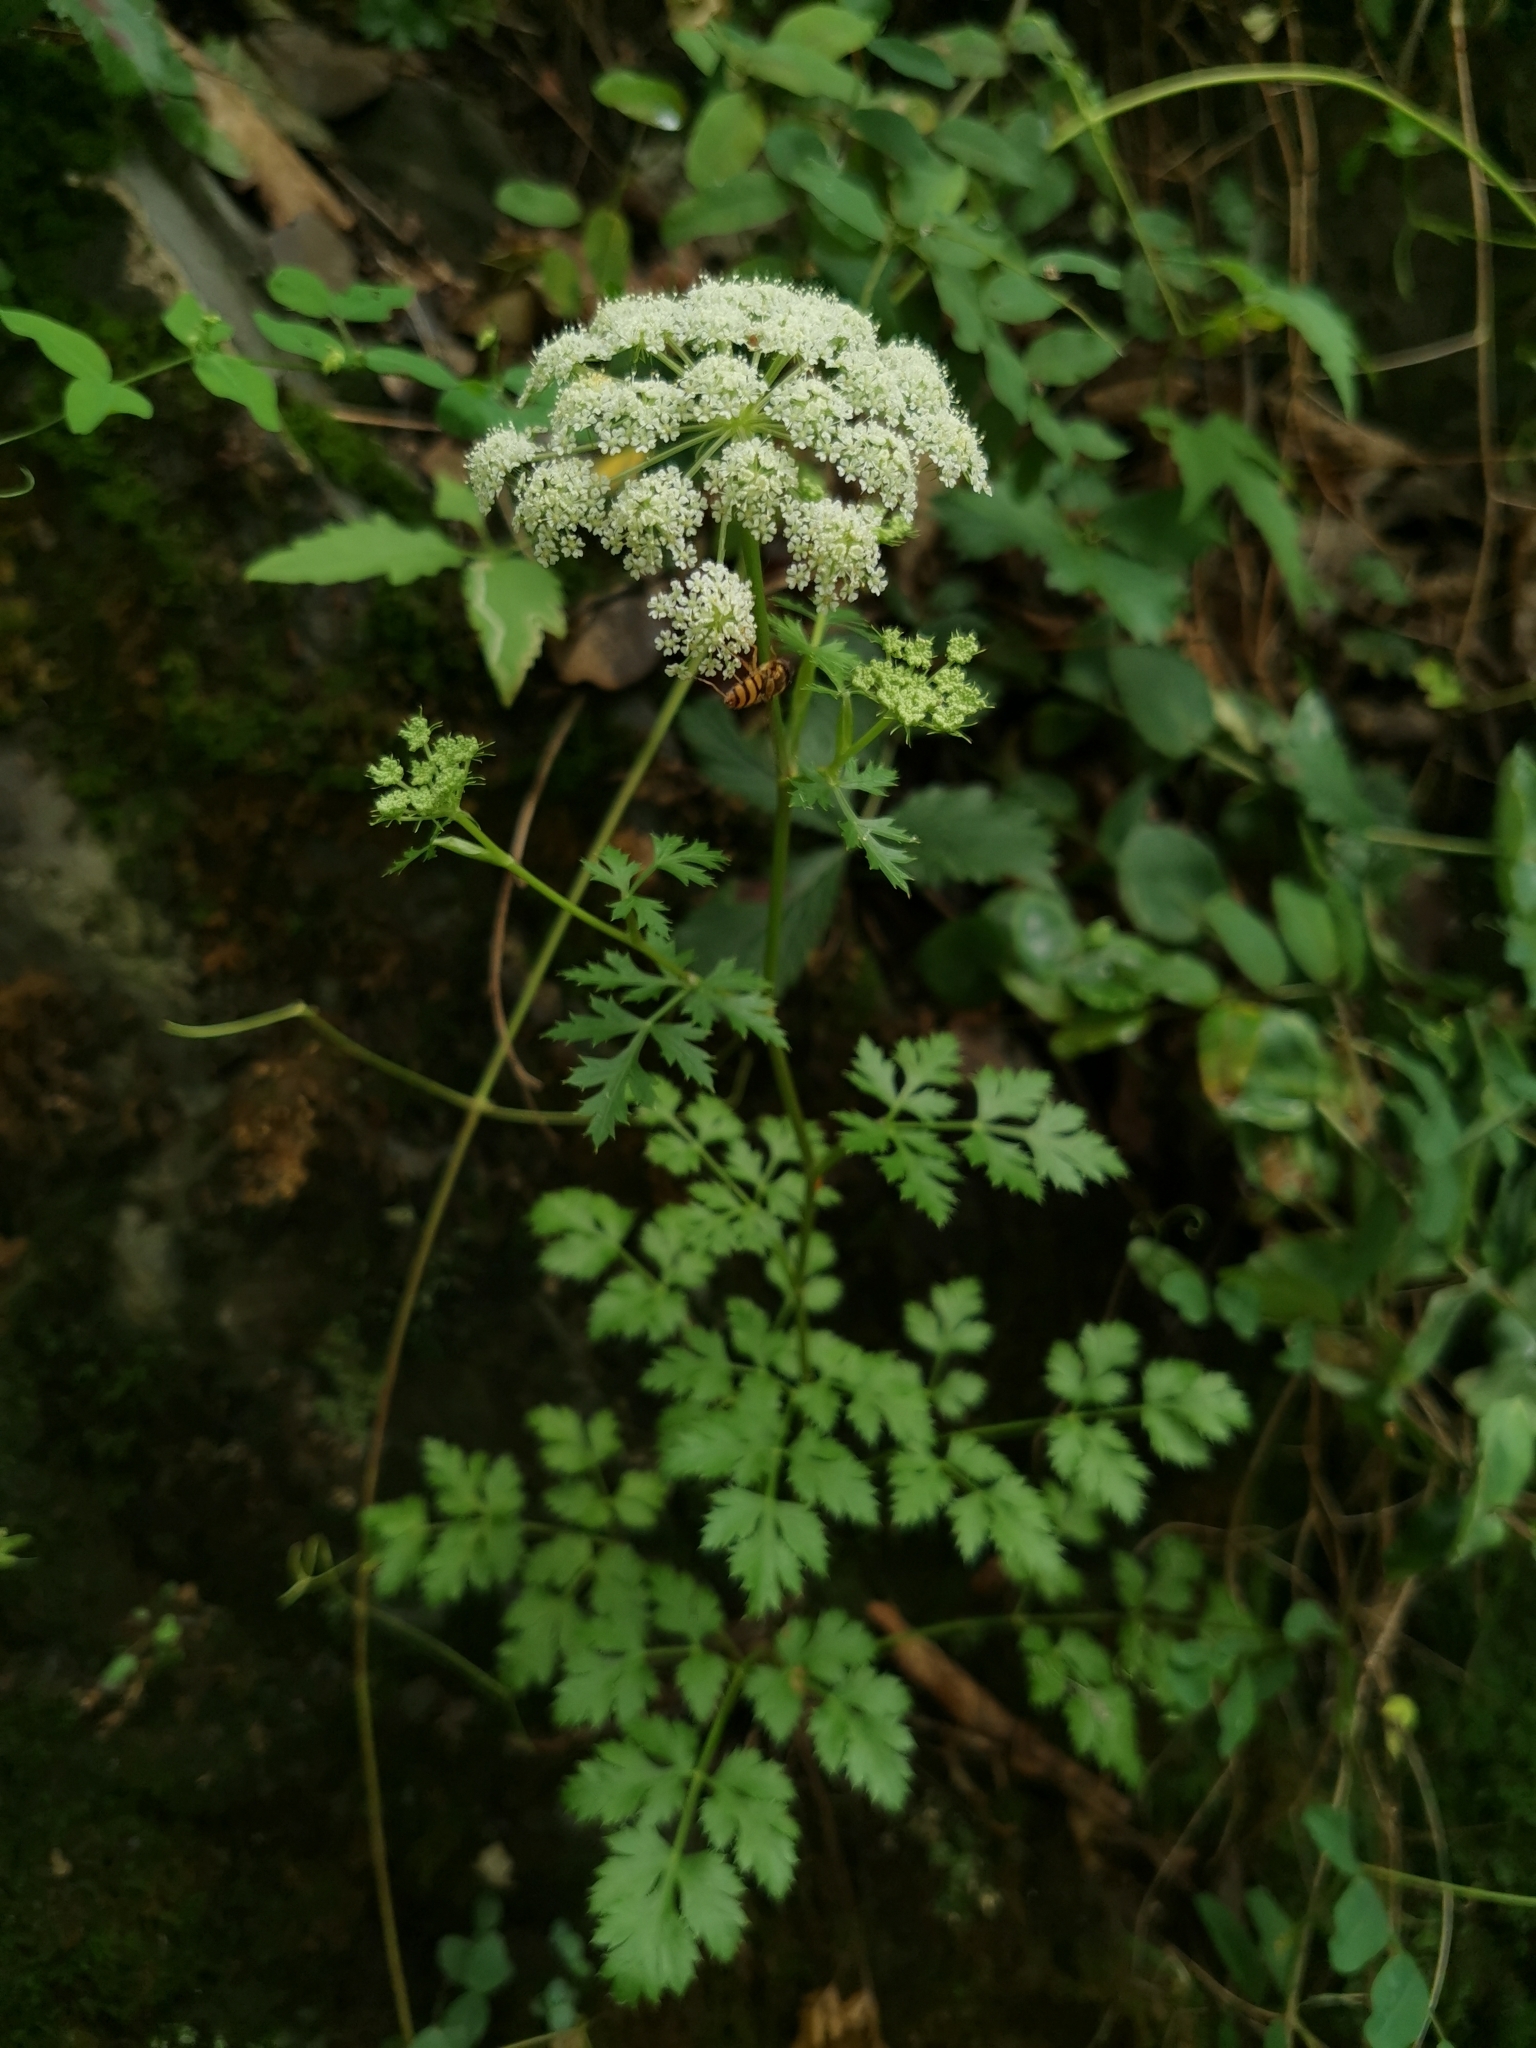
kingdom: Plantae
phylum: Tracheophyta
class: Magnoliopsida
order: Apiales
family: Apiaceae
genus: Kitagawia
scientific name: Kitagawia terebinthacea
